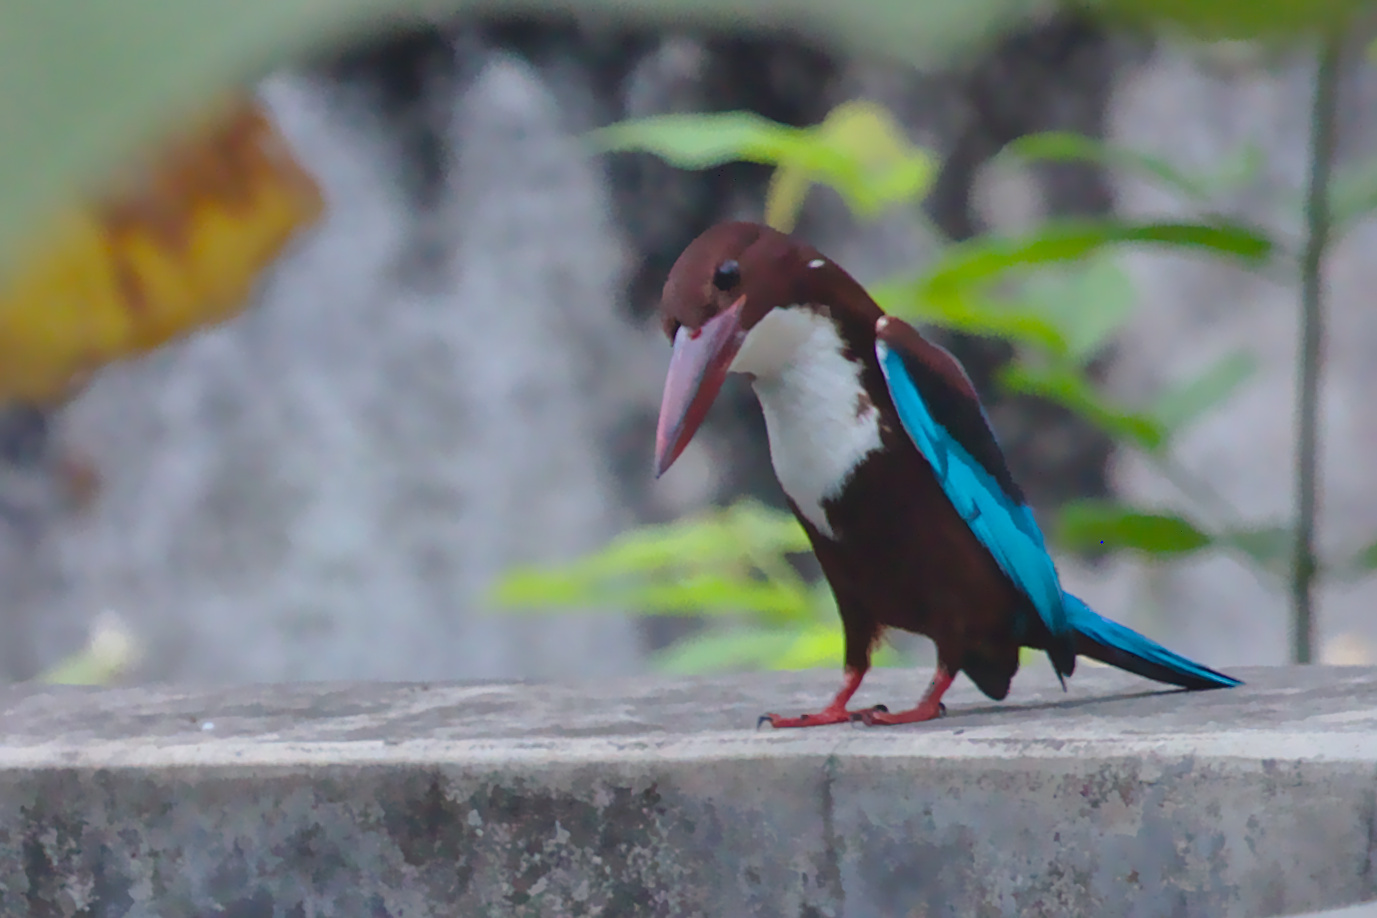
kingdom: Animalia
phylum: Chordata
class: Aves
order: Coraciiformes
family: Alcedinidae
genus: Halcyon
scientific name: Halcyon smyrnensis
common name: White-throated kingfisher
